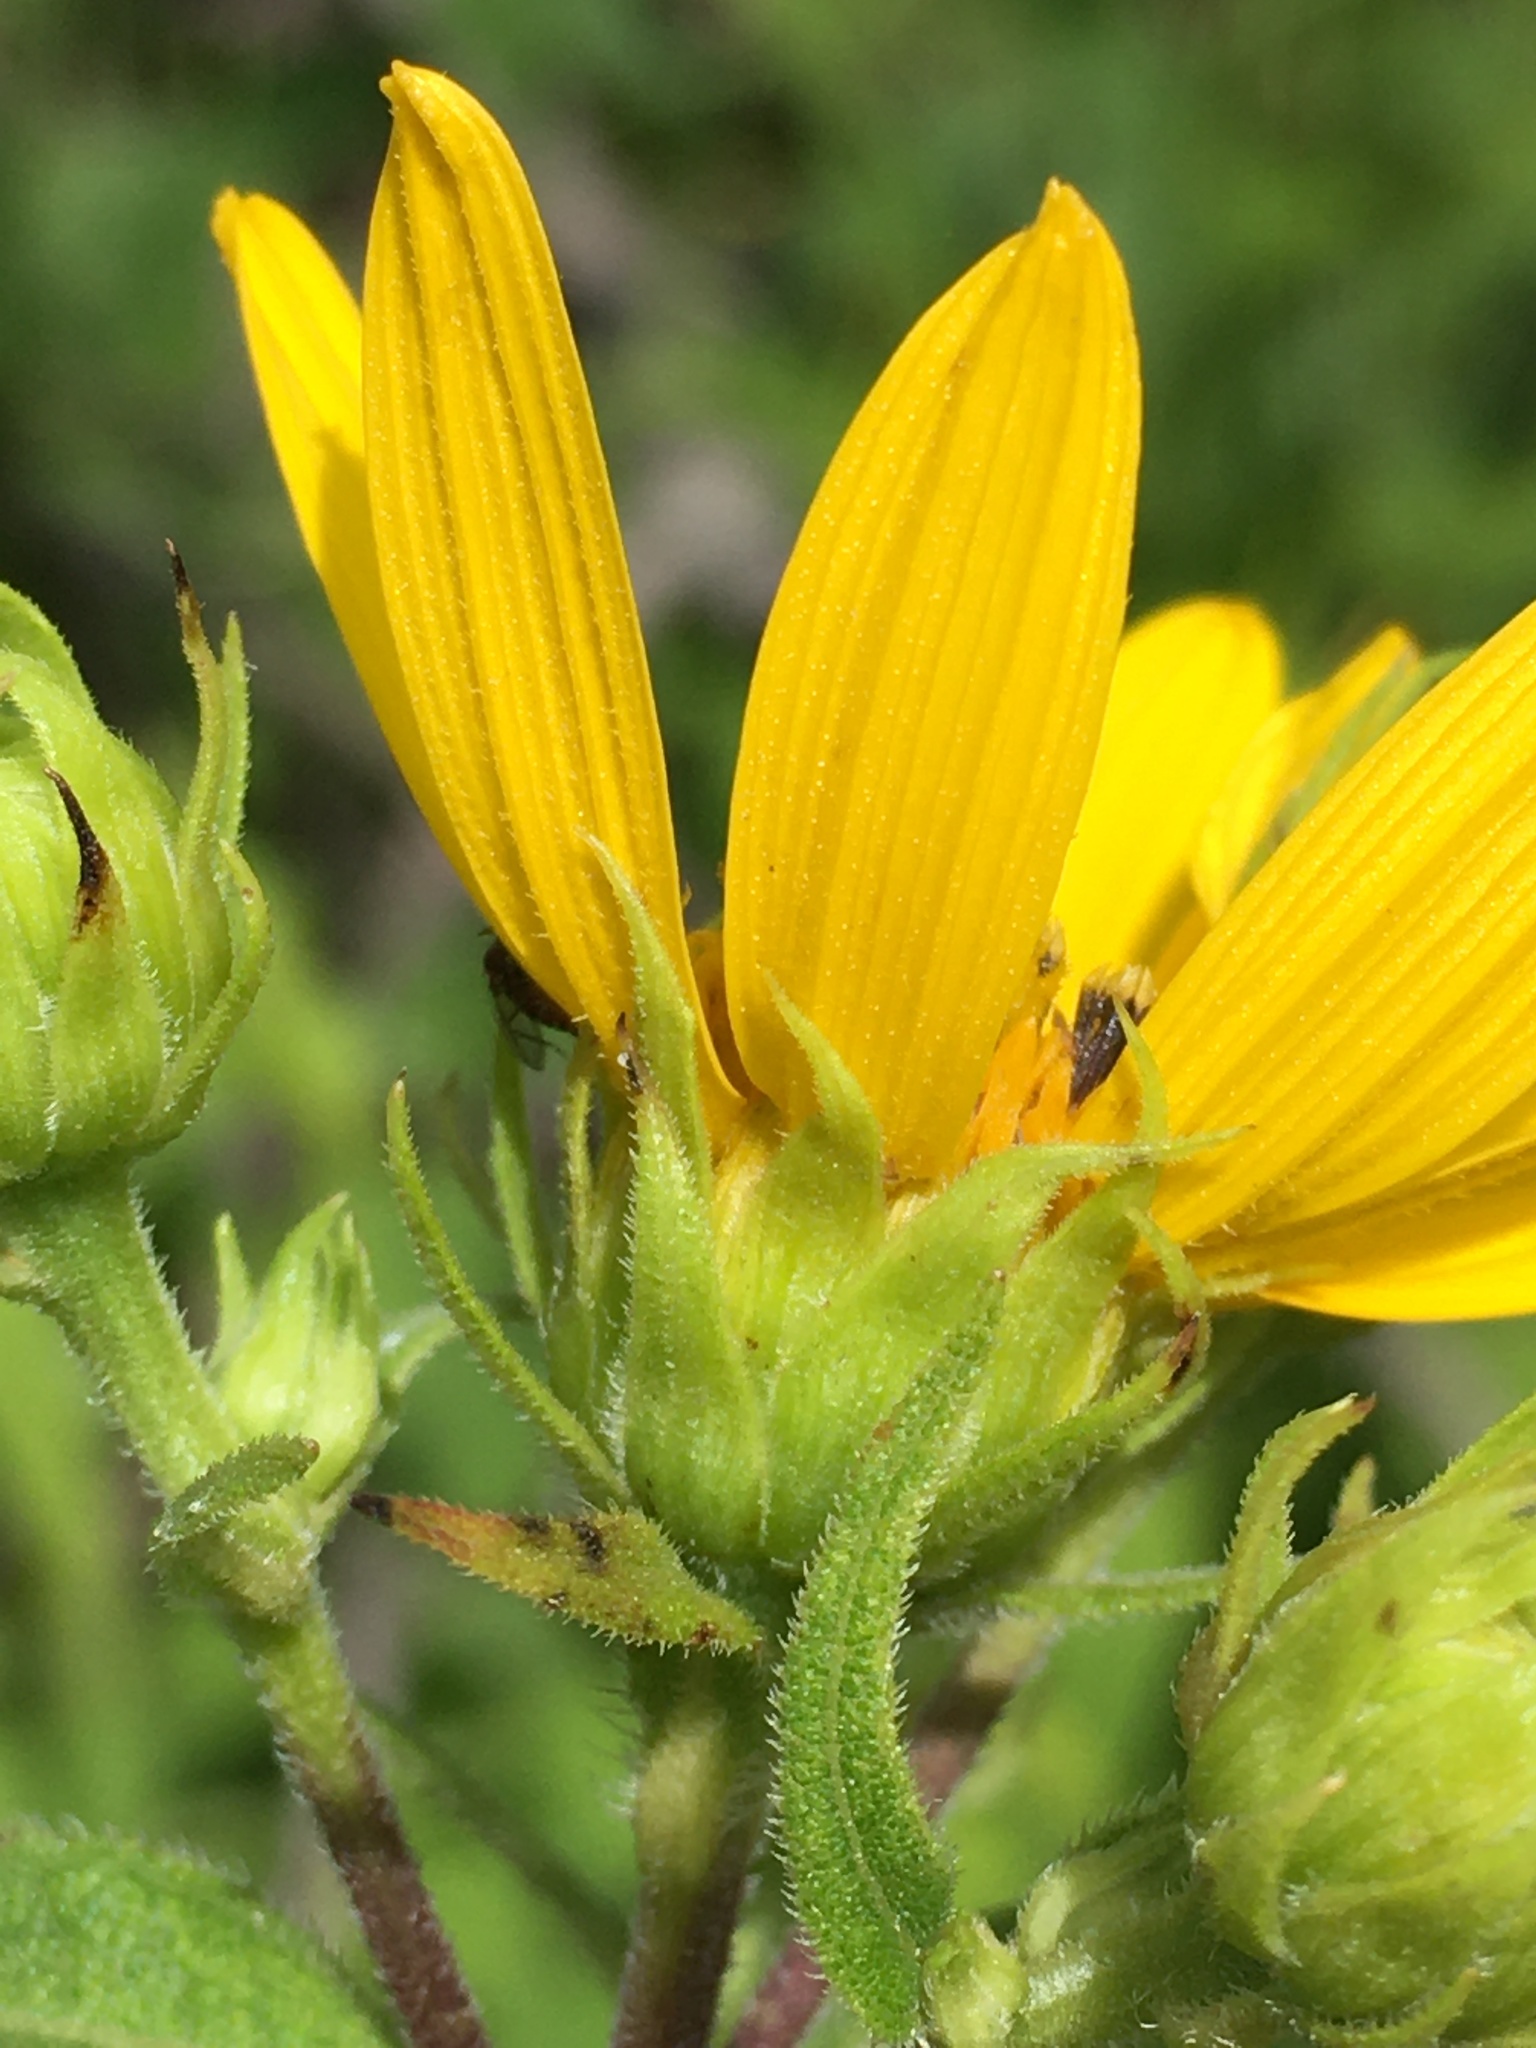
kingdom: Plantae
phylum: Tracheophyta
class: Magnoliopsida
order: Asterales
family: Asteraceae
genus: Helianthus
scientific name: Helianthus divaricatus
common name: Divergent sunflower
